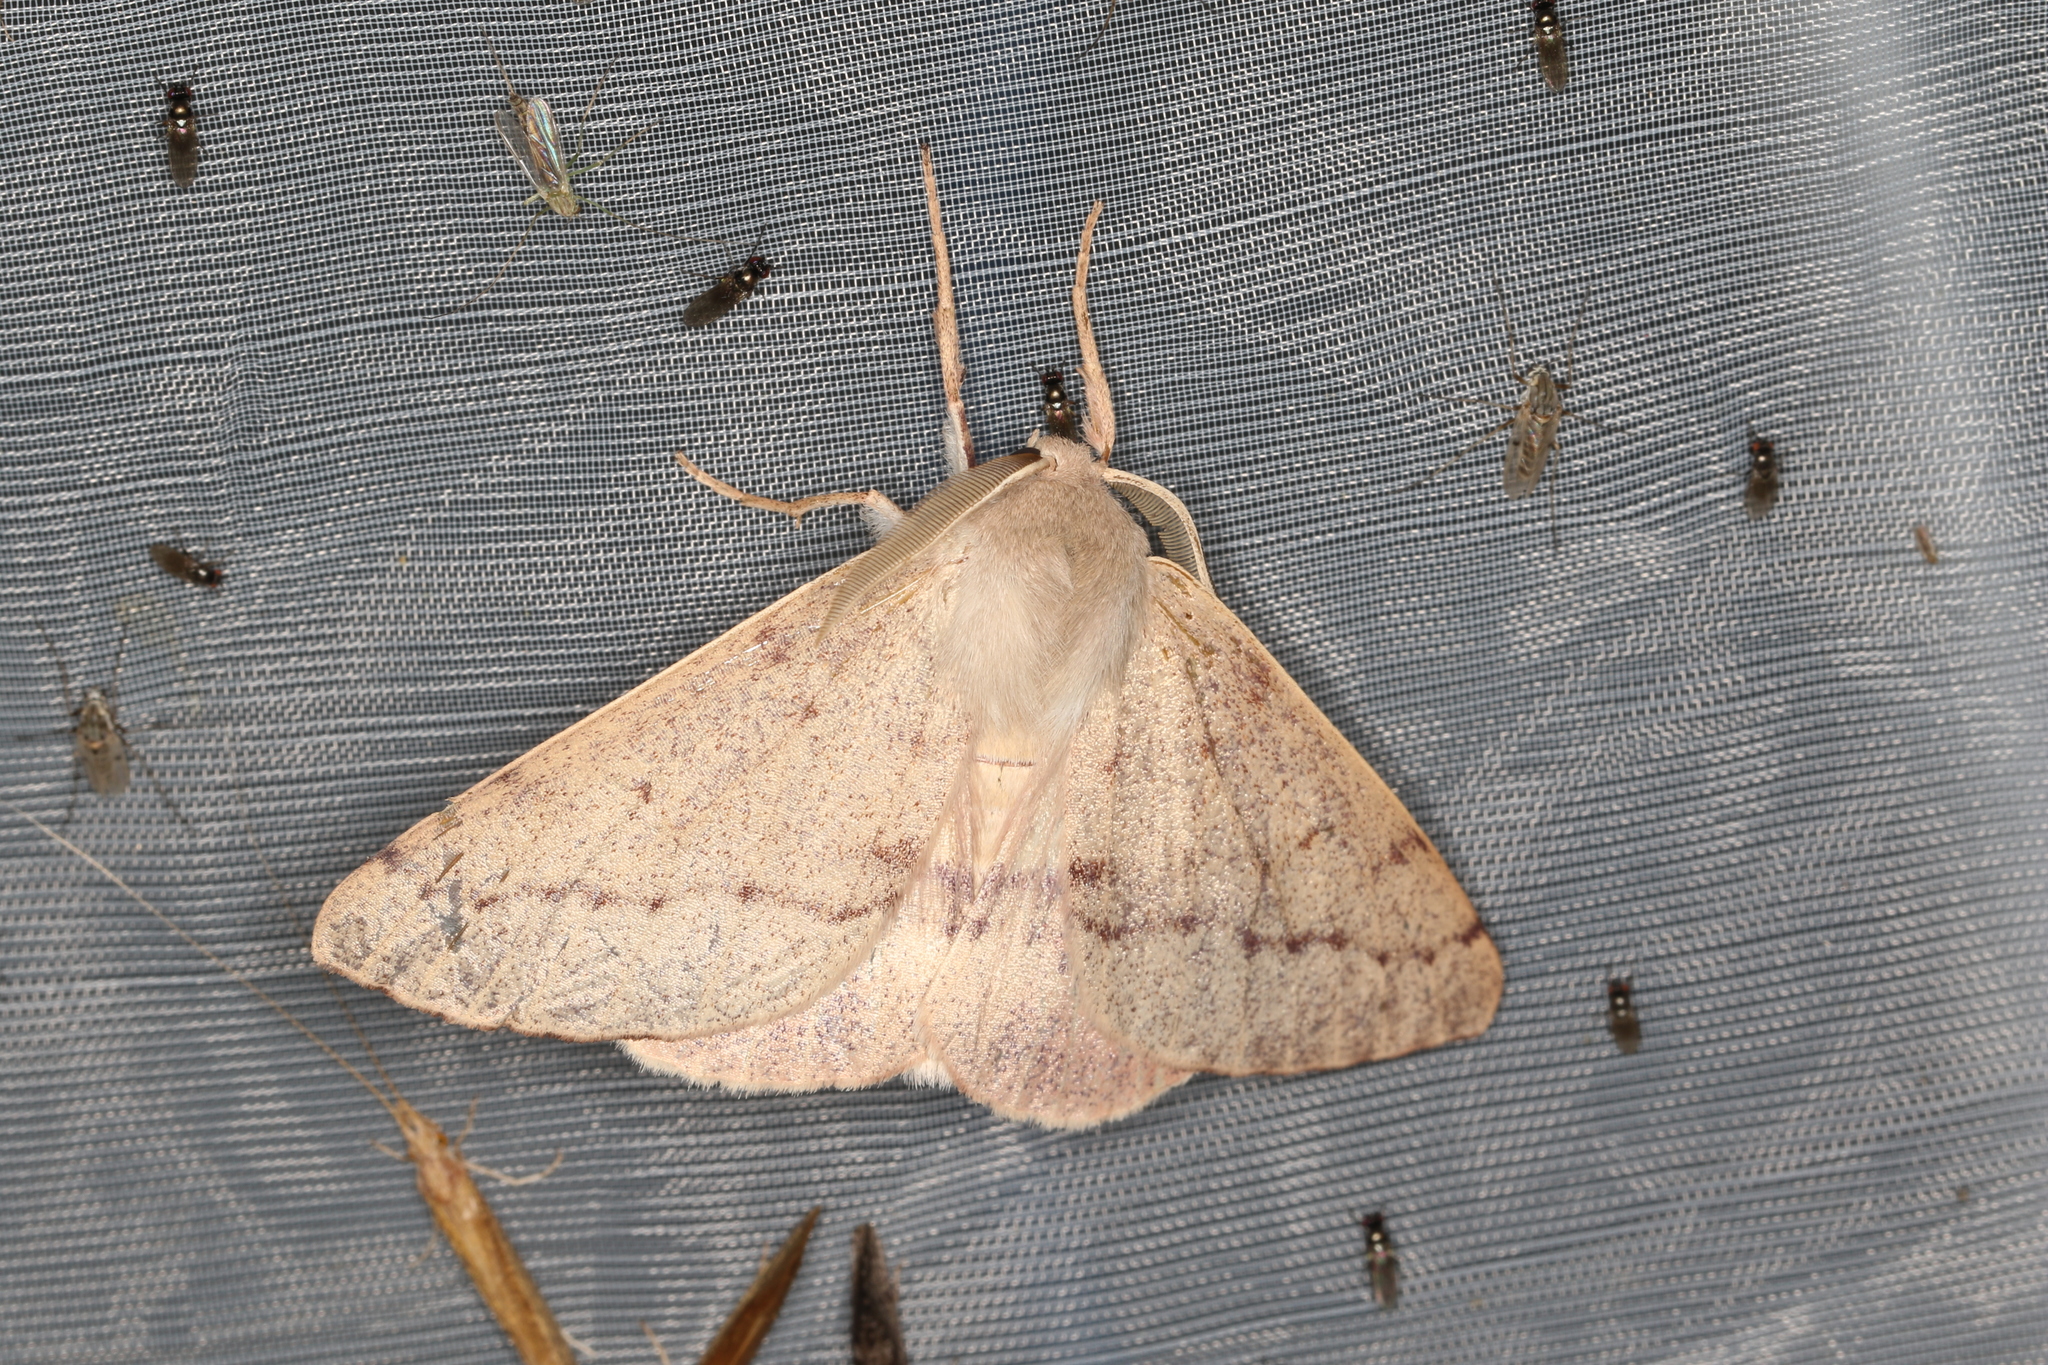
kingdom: Animalia
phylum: Arthropoda
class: Insecta
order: Lepidoptera
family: Geometridae
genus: Arhodia
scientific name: Arhodia lasiocamparia
